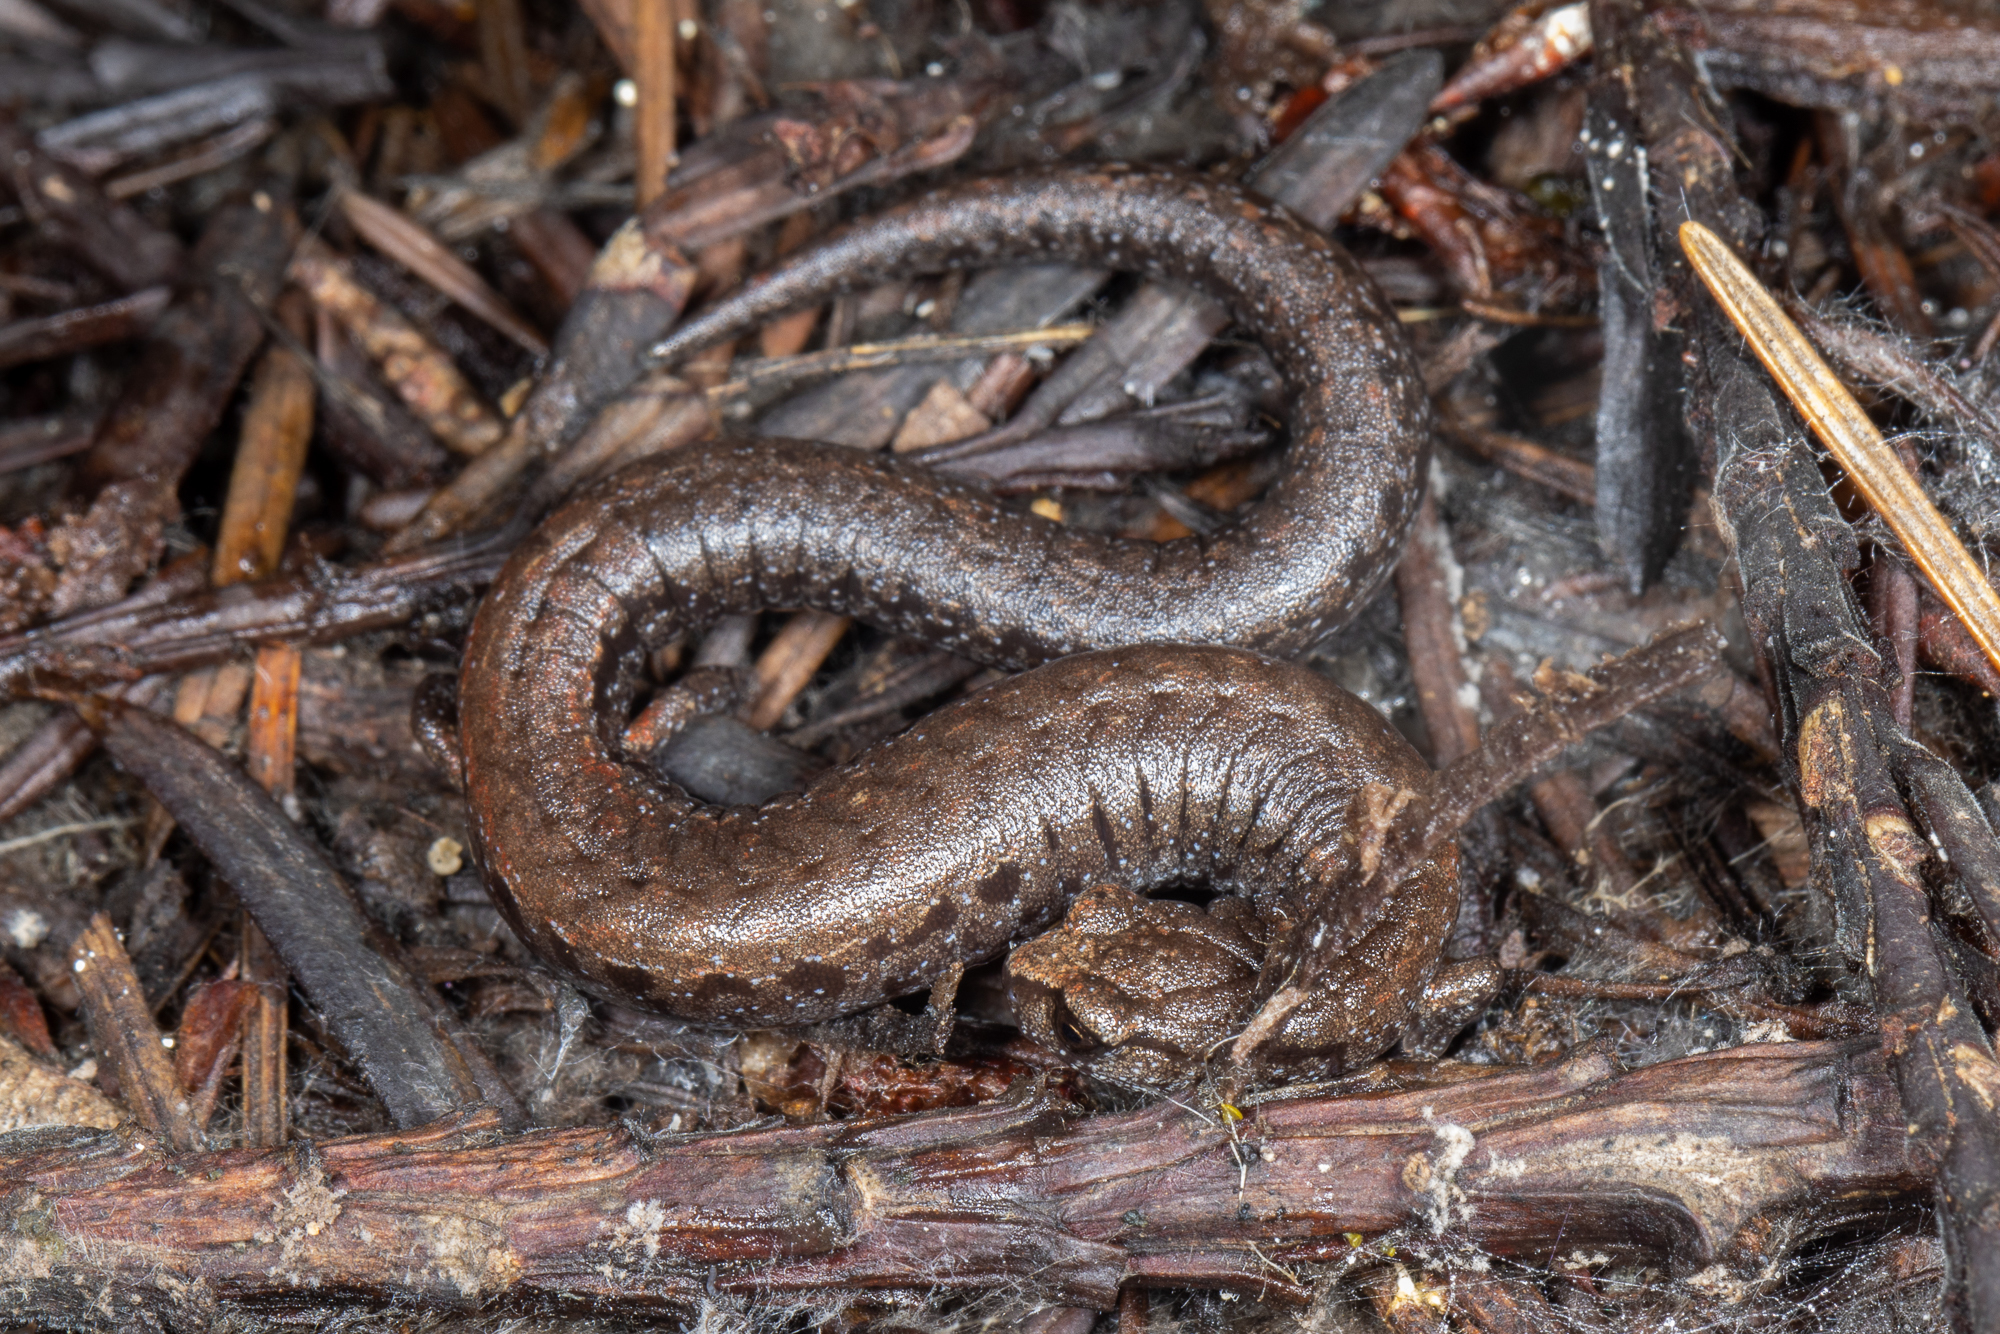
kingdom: Animalia
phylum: Chordata
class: Amphibia
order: Caudata
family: Plethodontidae
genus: Batrachoseps
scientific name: Batrachoseps attenuatus
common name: California slender salamander
